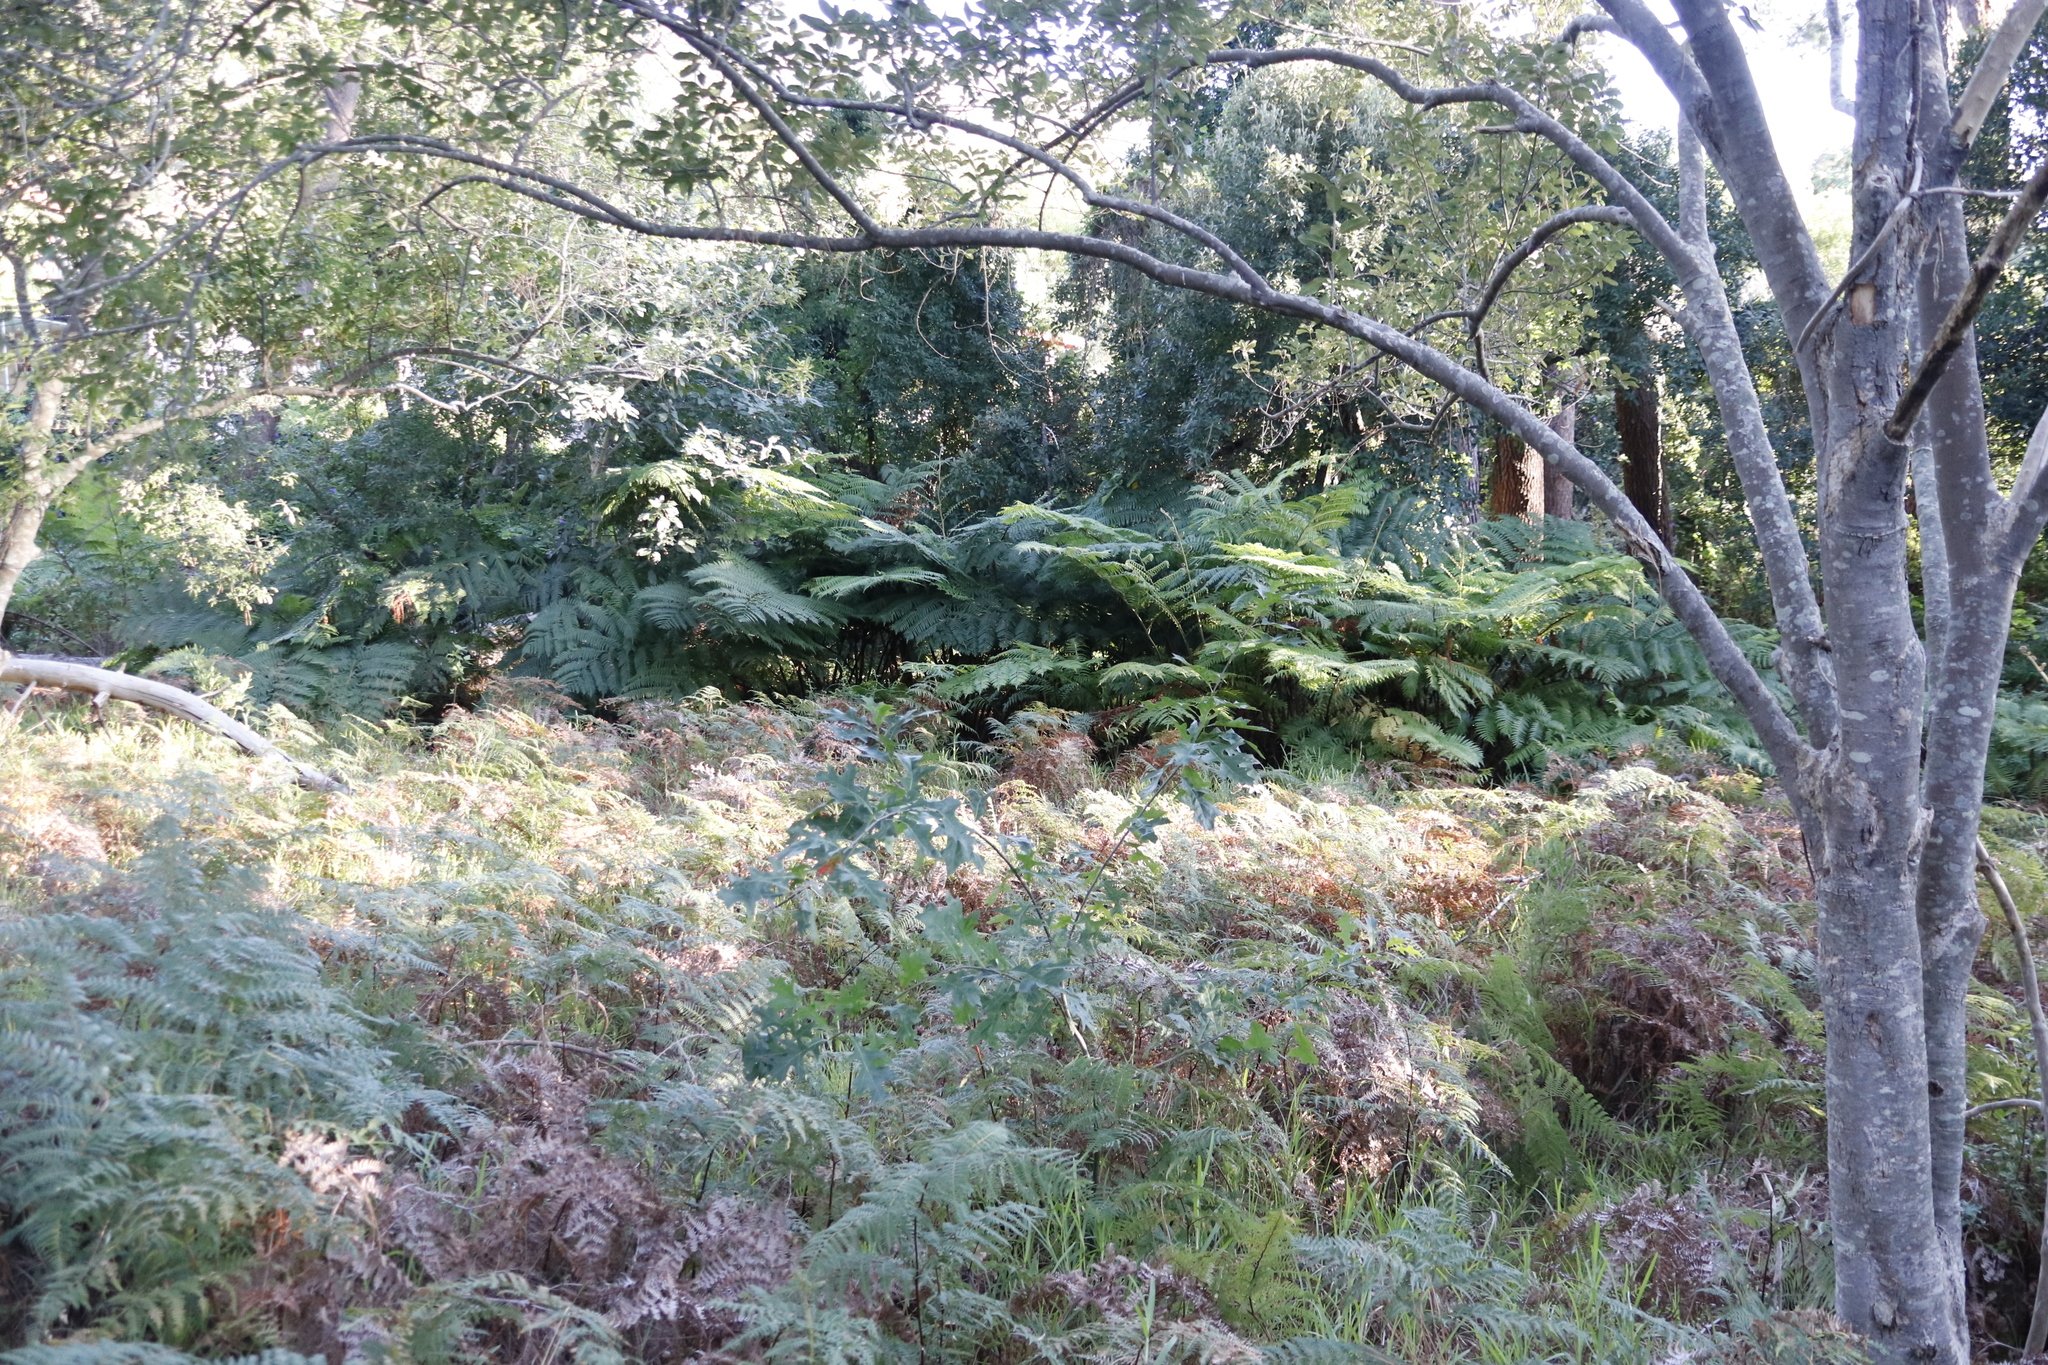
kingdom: Plantae
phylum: Tracheophyta
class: Polypodiopsida
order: Cyatheales
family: Cyatheaceae
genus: Sphaeropteris
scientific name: Sphaeropteris cooperi
